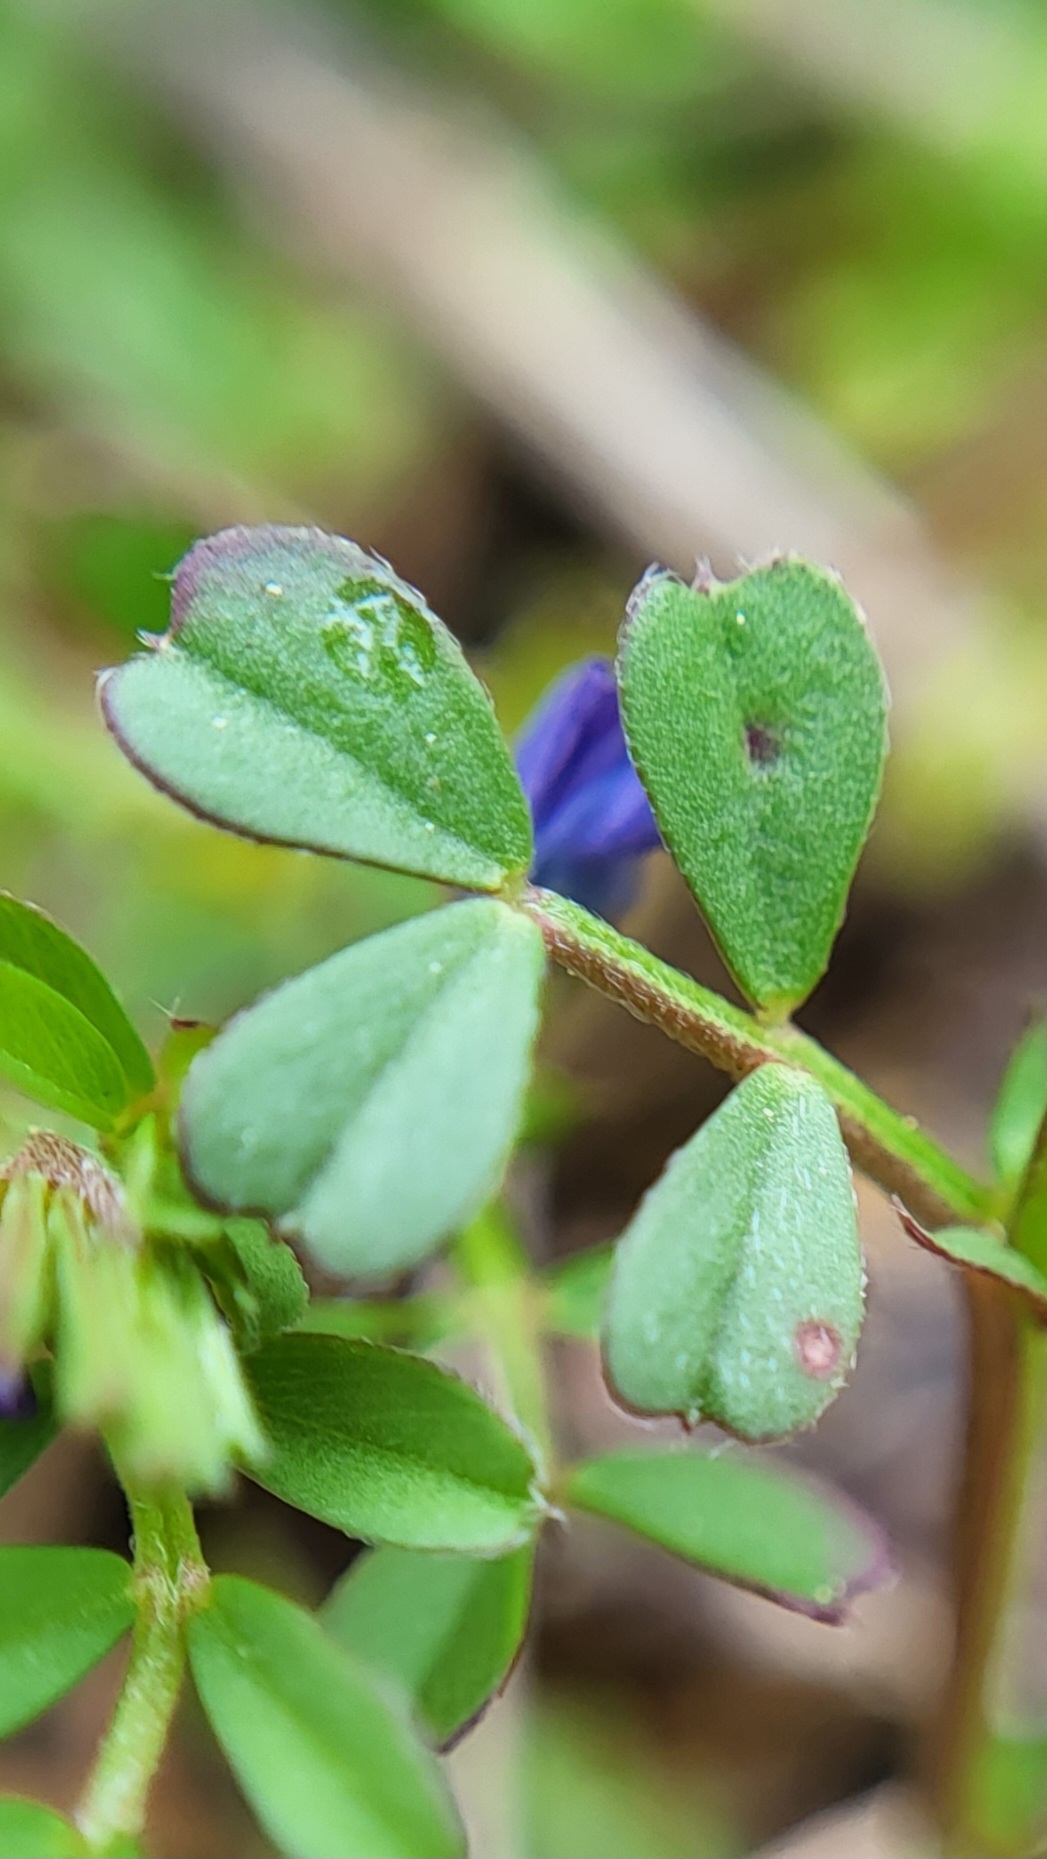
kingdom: Plantae
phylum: Tracheophyta
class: Magnoliopsida
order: Fabales
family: Fabaceae
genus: Vicia
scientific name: Vicia lathyroides
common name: Spring vetch
